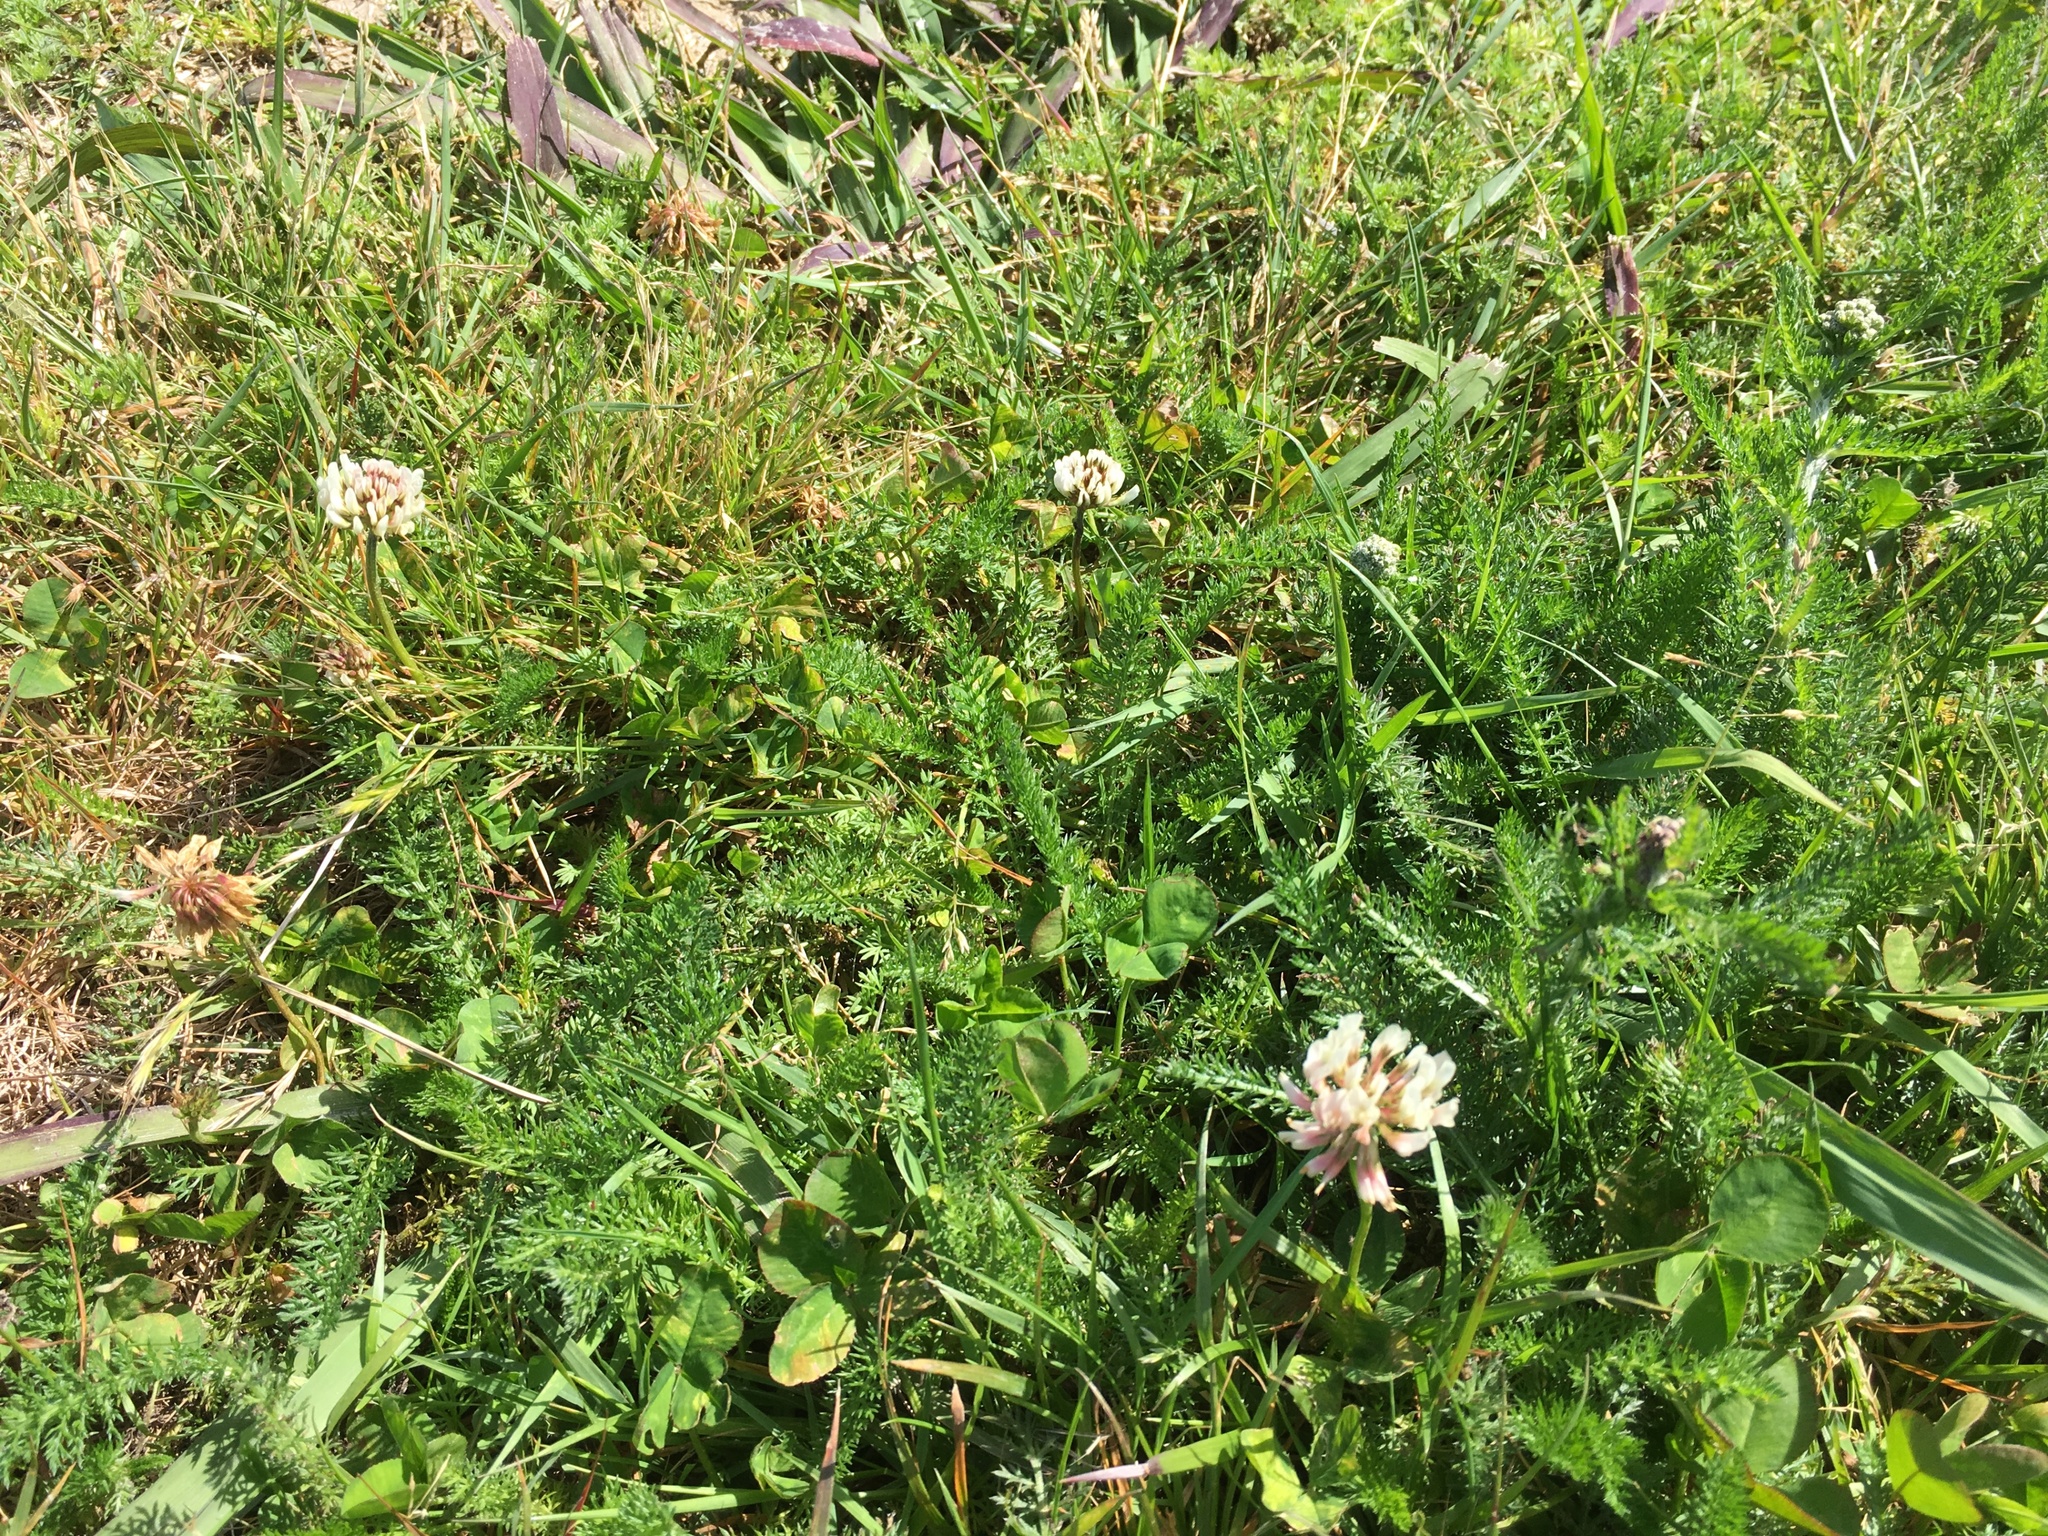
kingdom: Plantae
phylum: Tracheophyta
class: Magnoliopsida
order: Fabales
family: Fabaceae
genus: Trifolium
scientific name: Trifolium repens
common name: White clover
